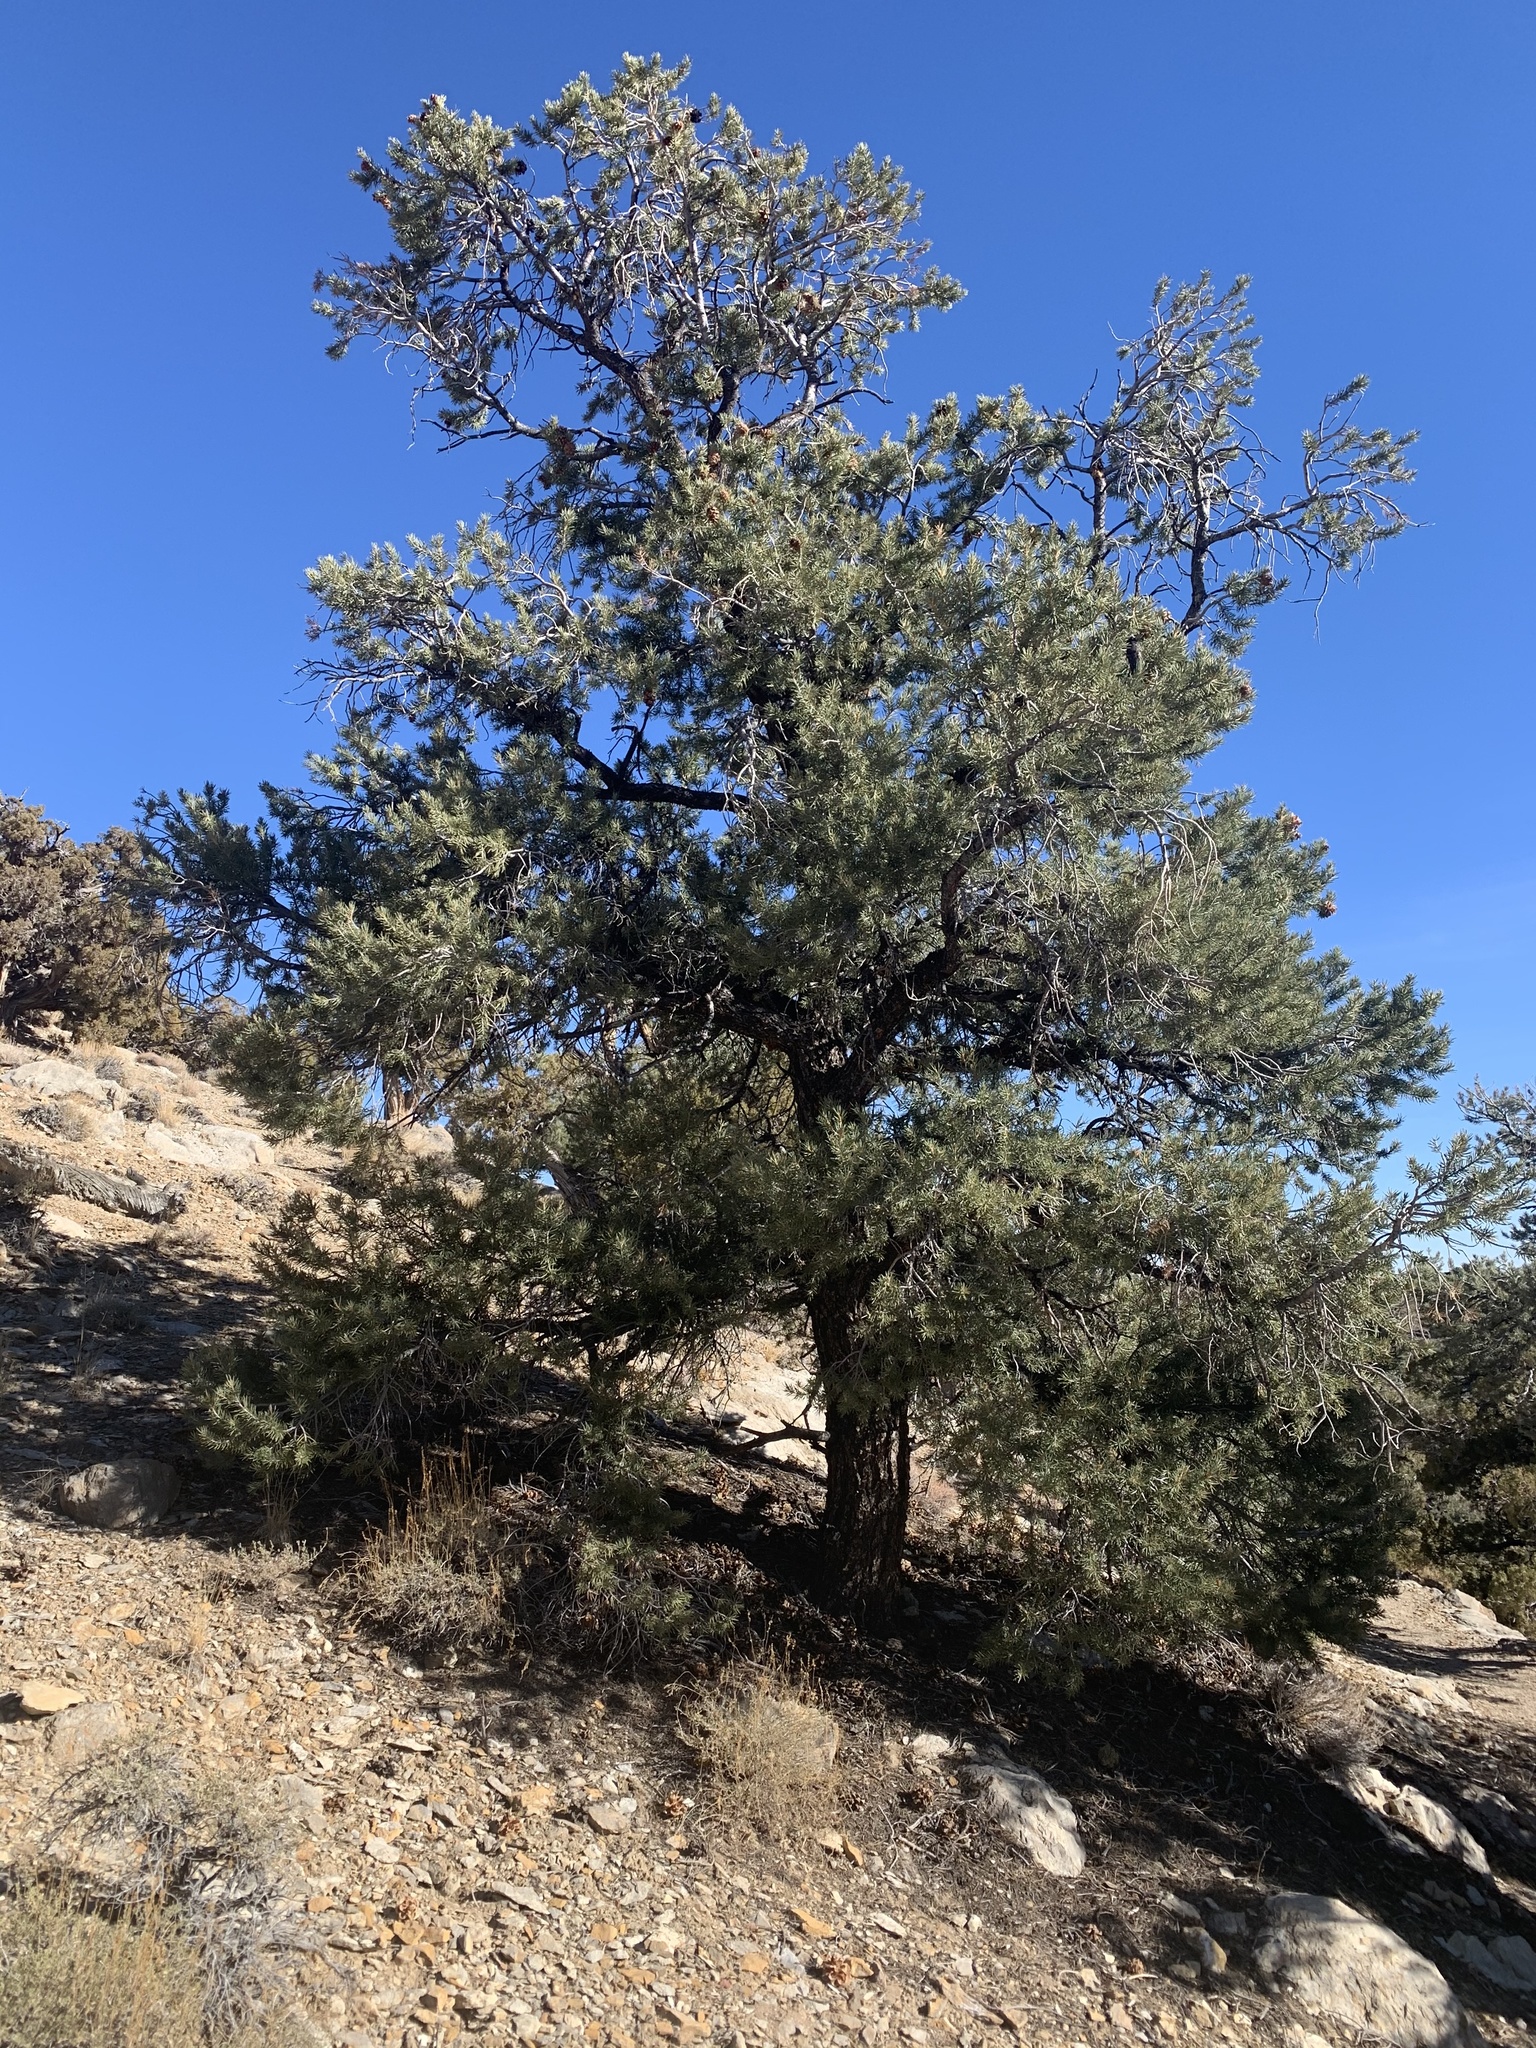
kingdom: Plantae
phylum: Tracheophyta
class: Pinopsida
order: Pinales
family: Pinaceae
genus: Pinus
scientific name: Pinus monophylla
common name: One-leaved nut pine
